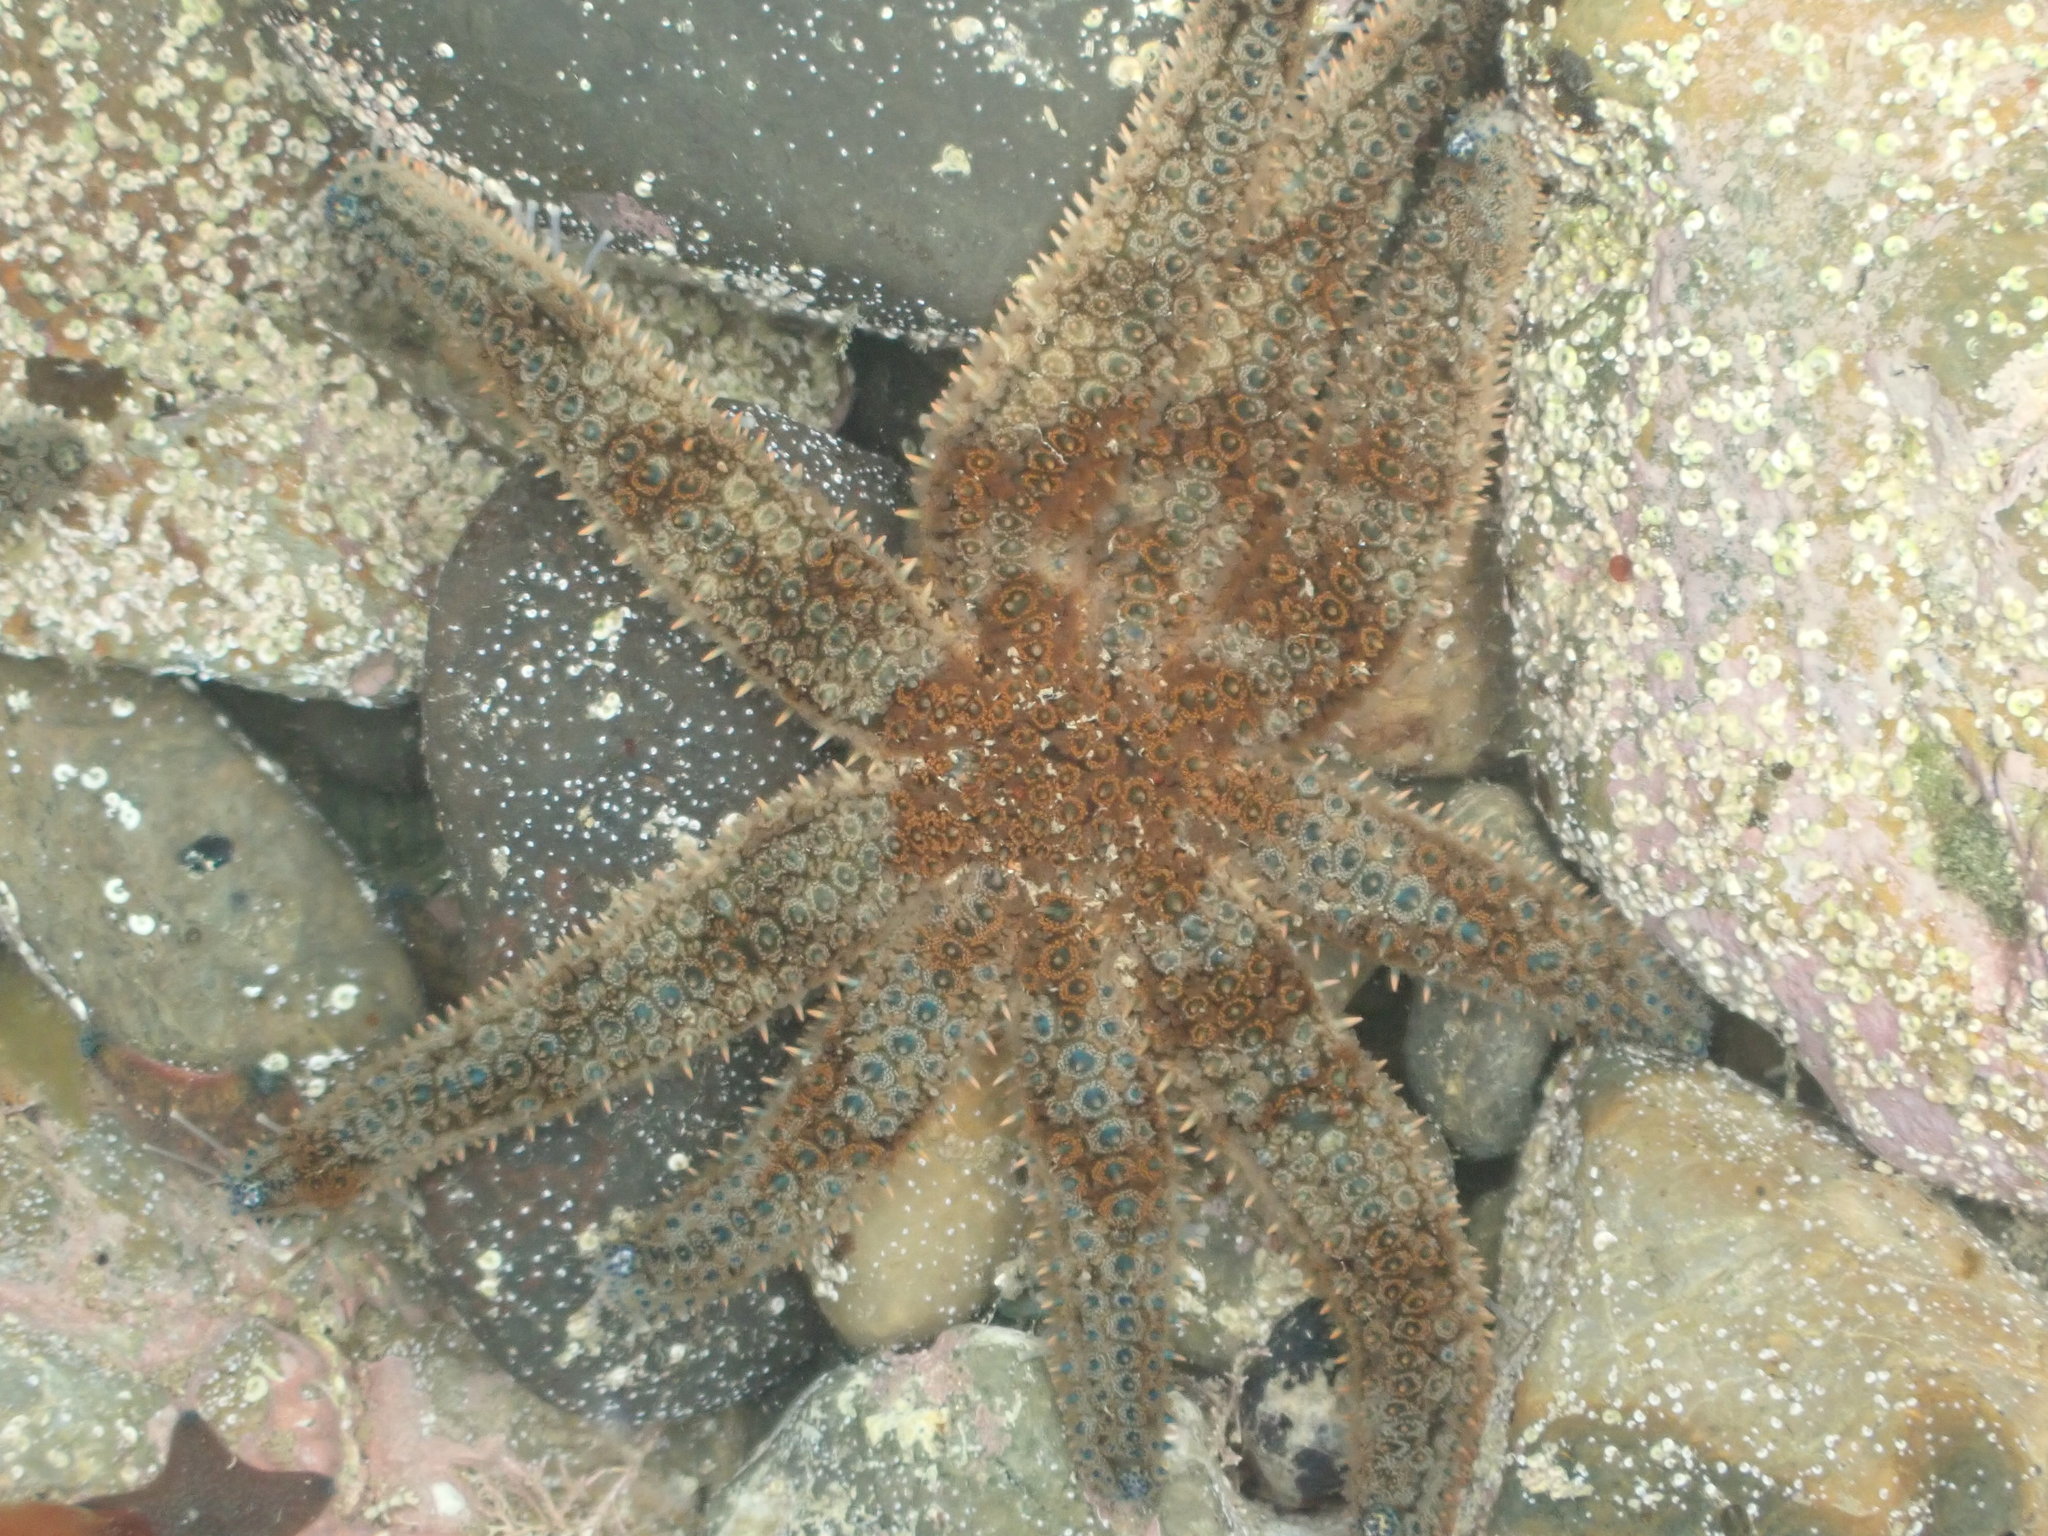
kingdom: Animalia
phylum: Echinodermata
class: Asteroidea
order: Forcipulatida
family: Asteriidae
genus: Coscinasterias
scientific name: Coscinasterias muricata
